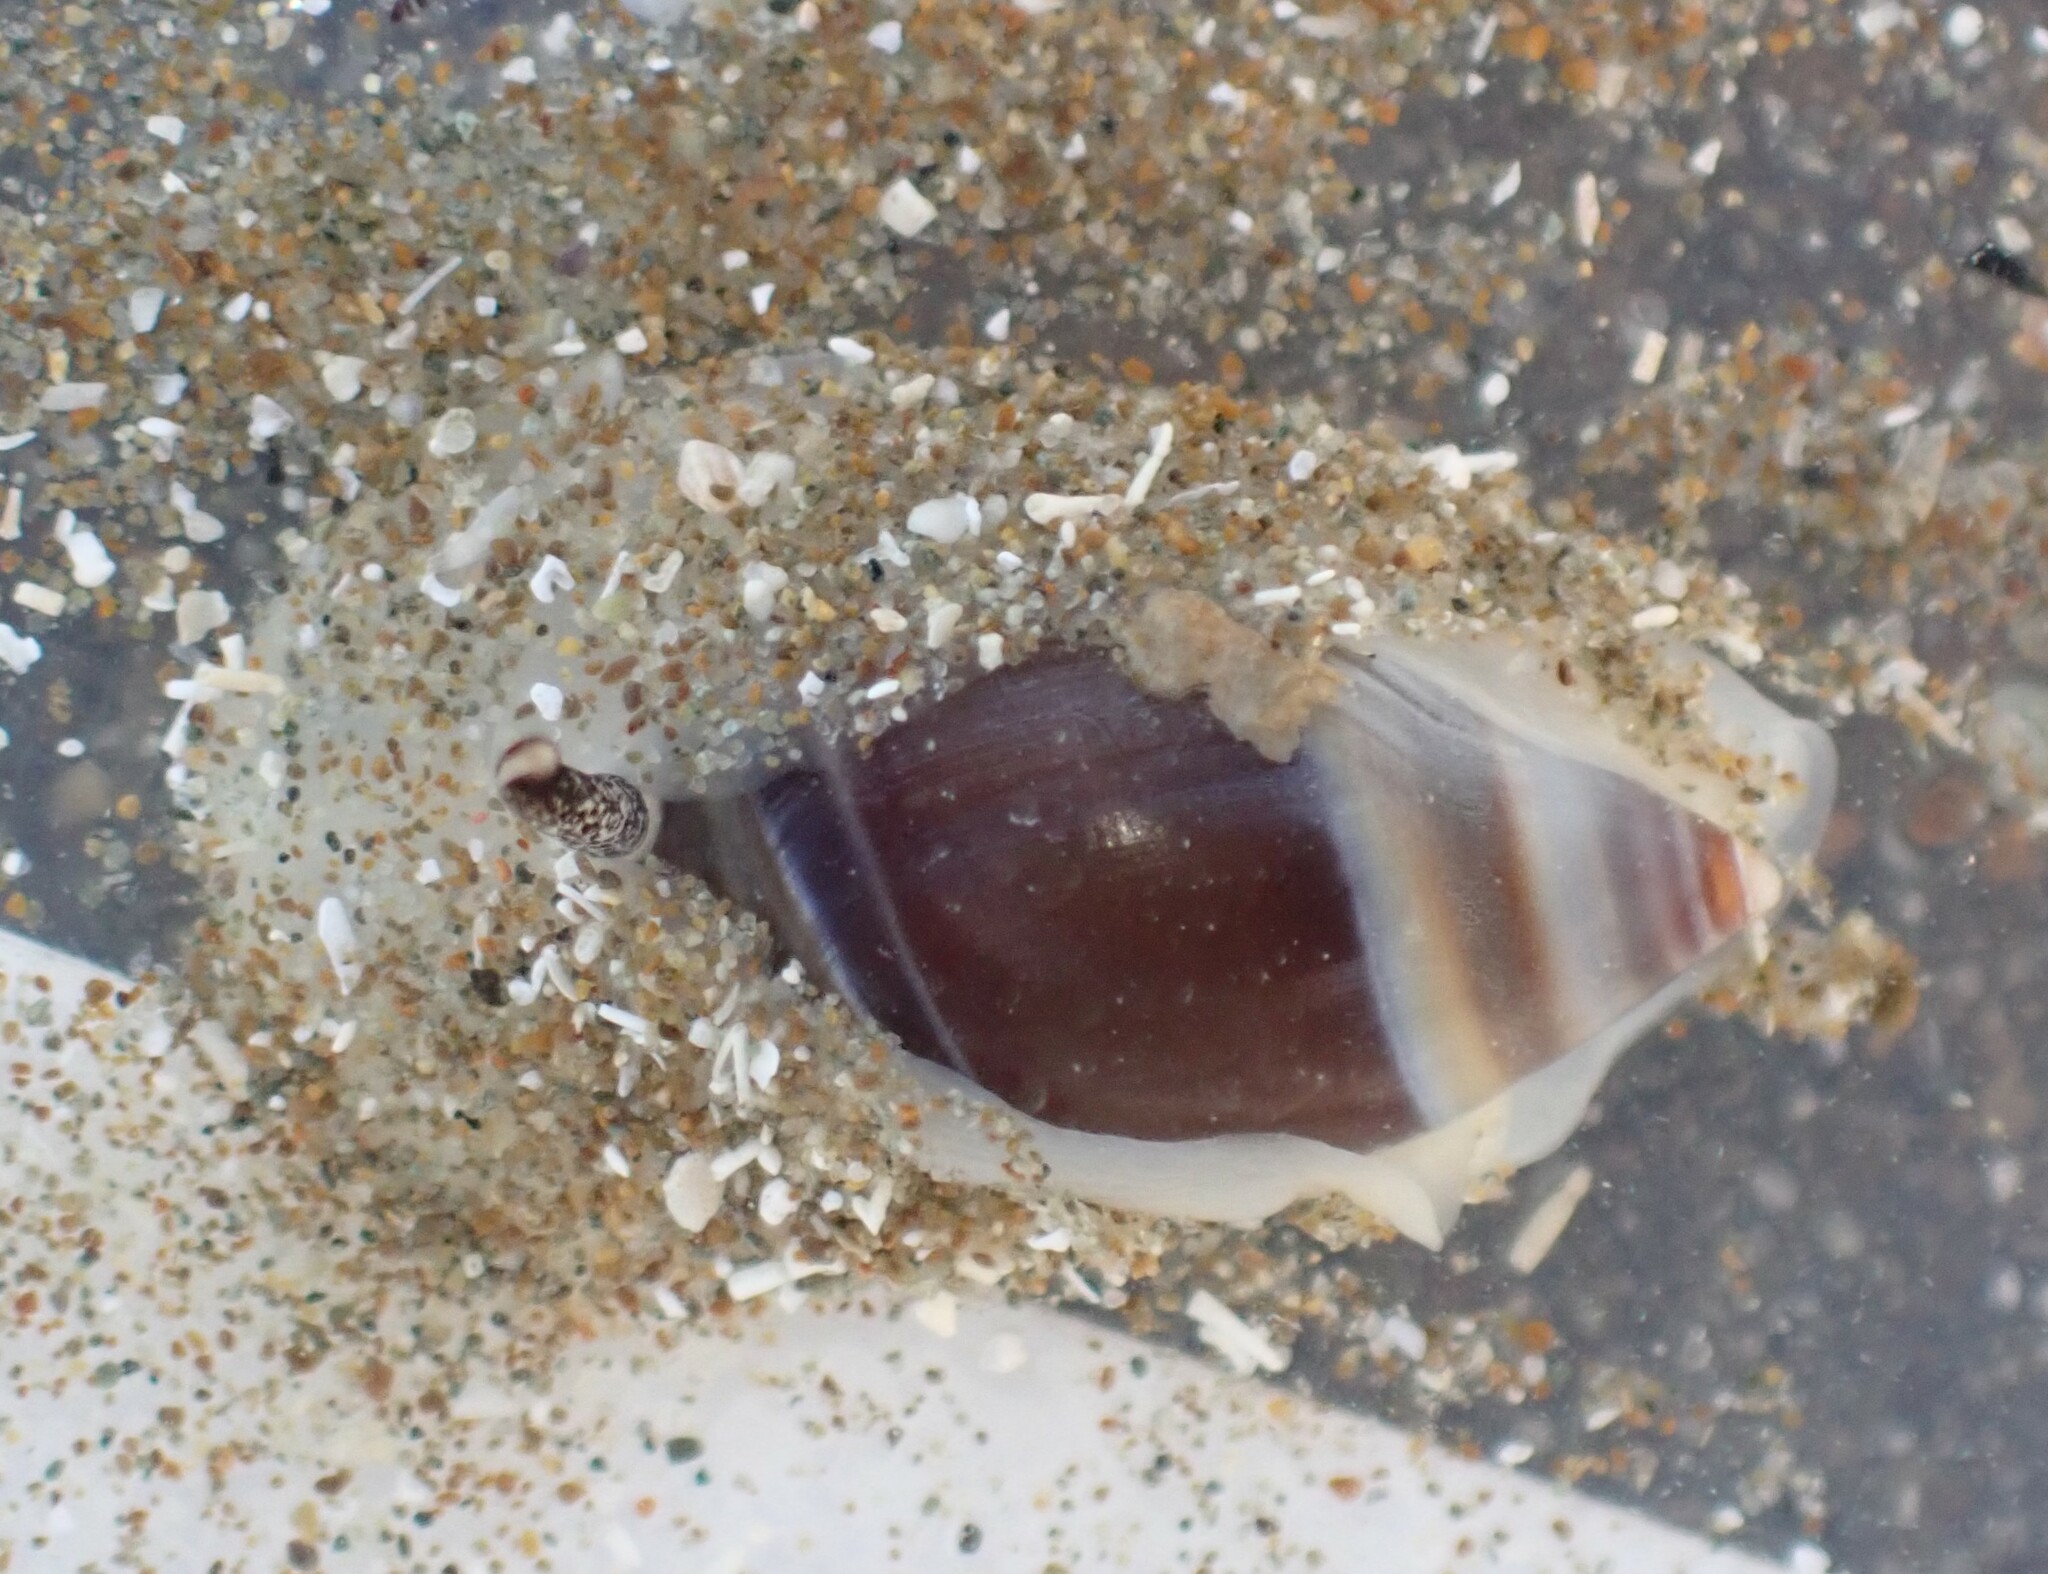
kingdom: Animalia
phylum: Mollusca
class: Gastropoda
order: Neogastropoda
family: Ancillariidae
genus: Amalda
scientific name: Amalda depressa
